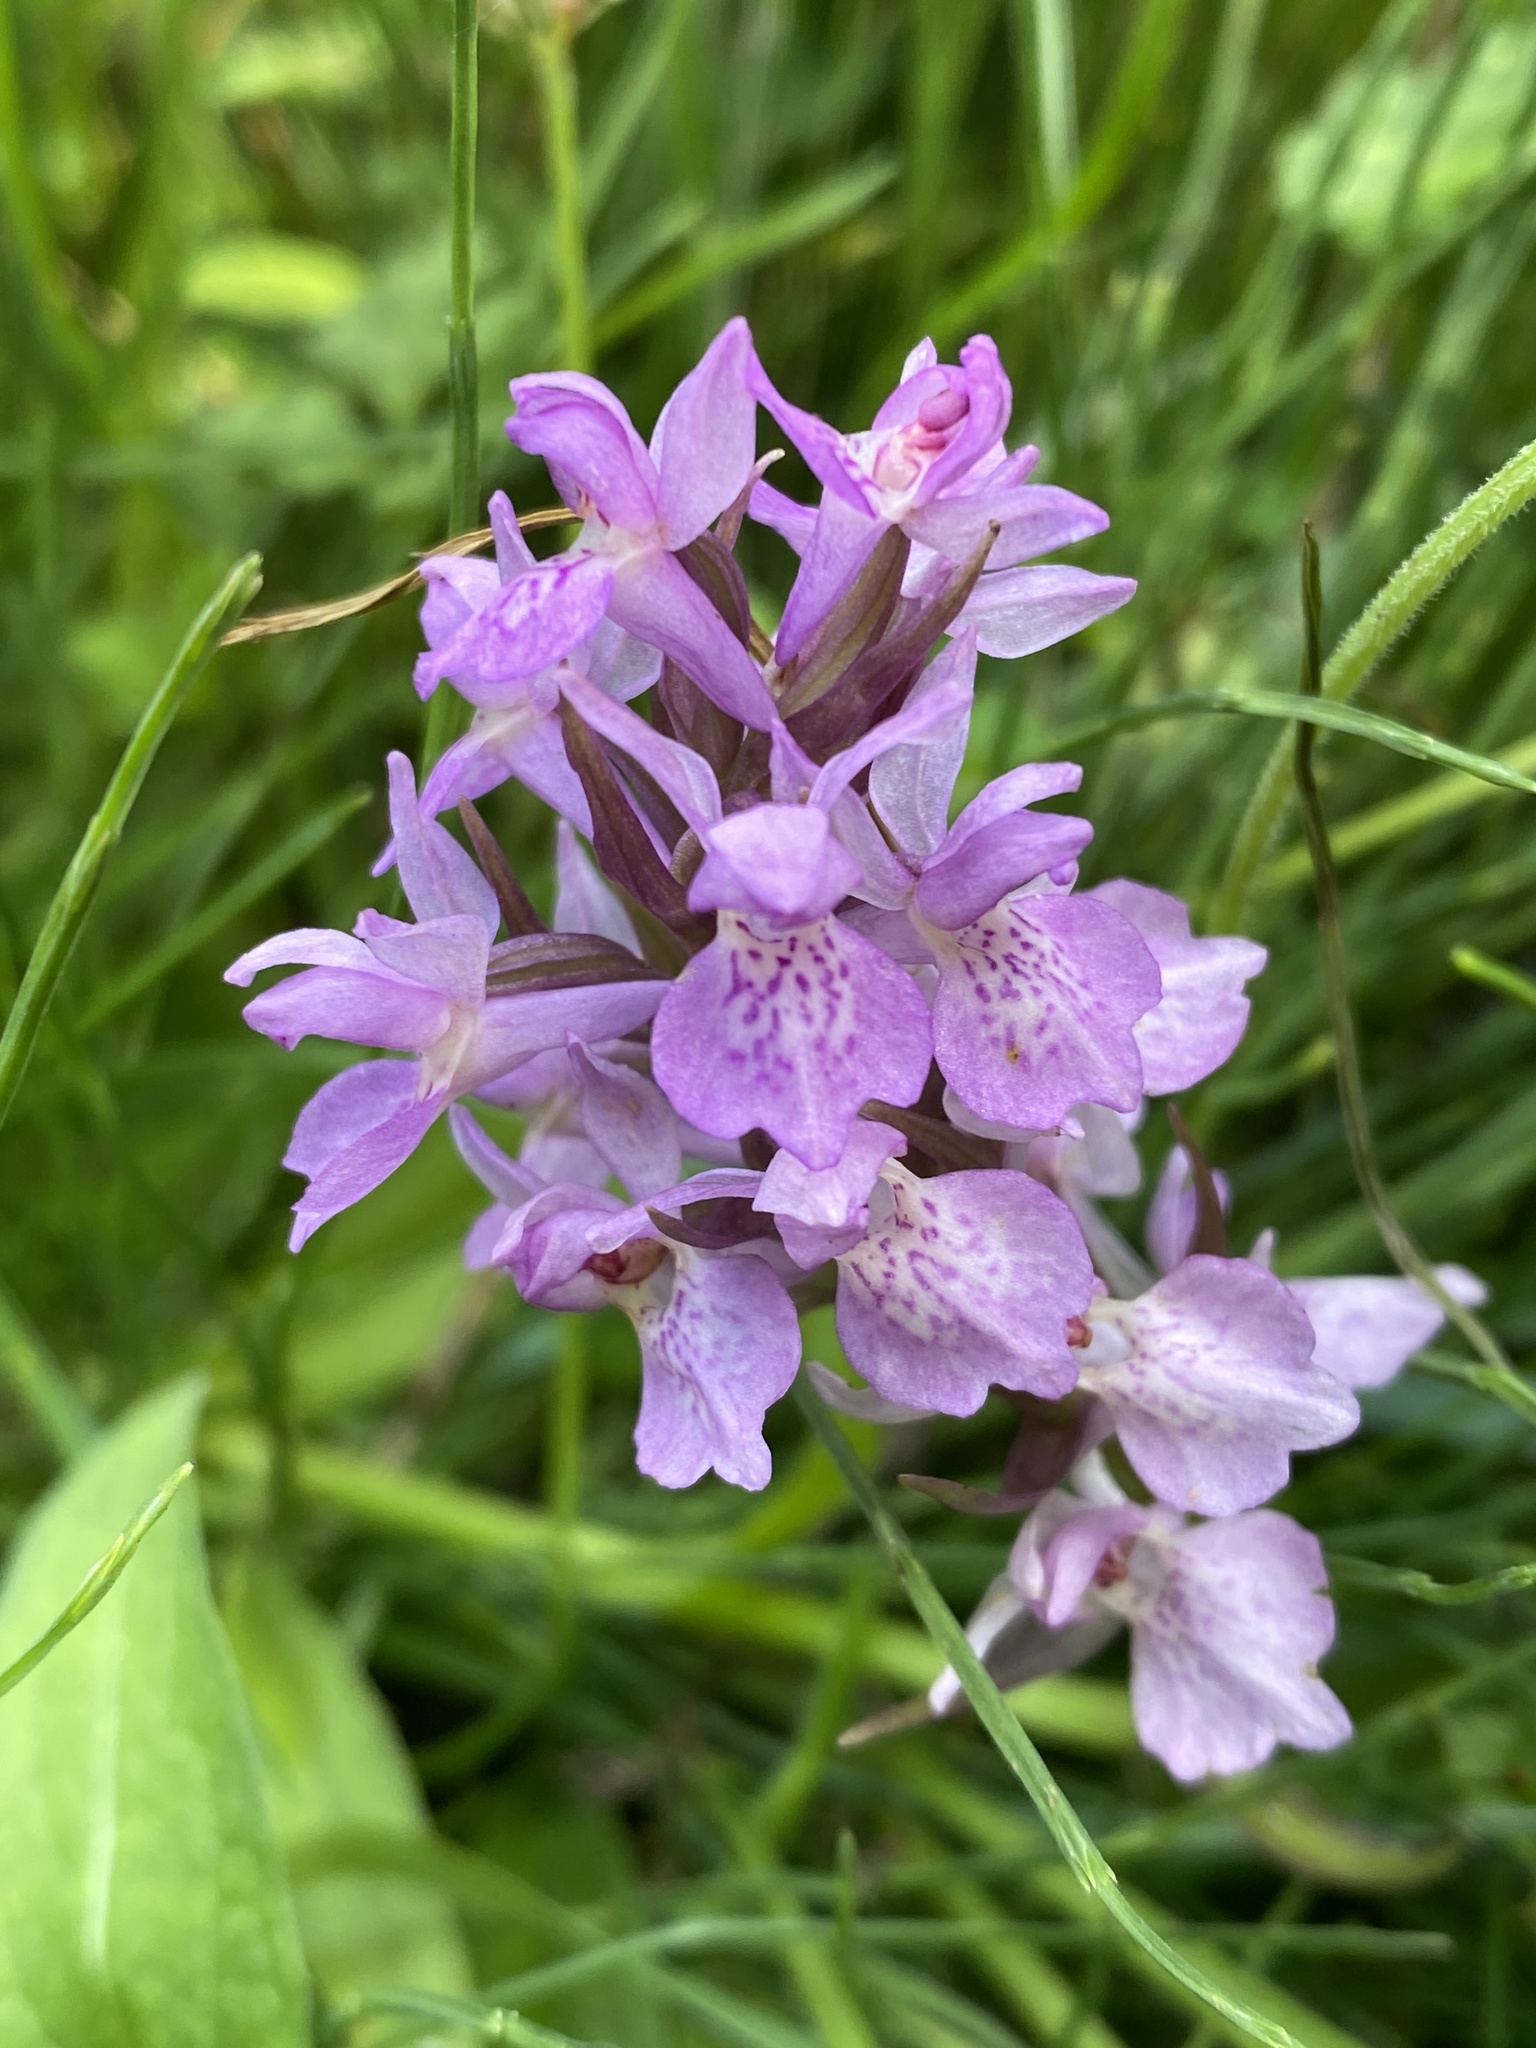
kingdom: Plantae
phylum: Tracheophyta
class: Liliopsida
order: Asparagales
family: Orchidaceae
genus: Dactylorhiza
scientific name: Dactylorhiza majalis
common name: Marsh orchid
